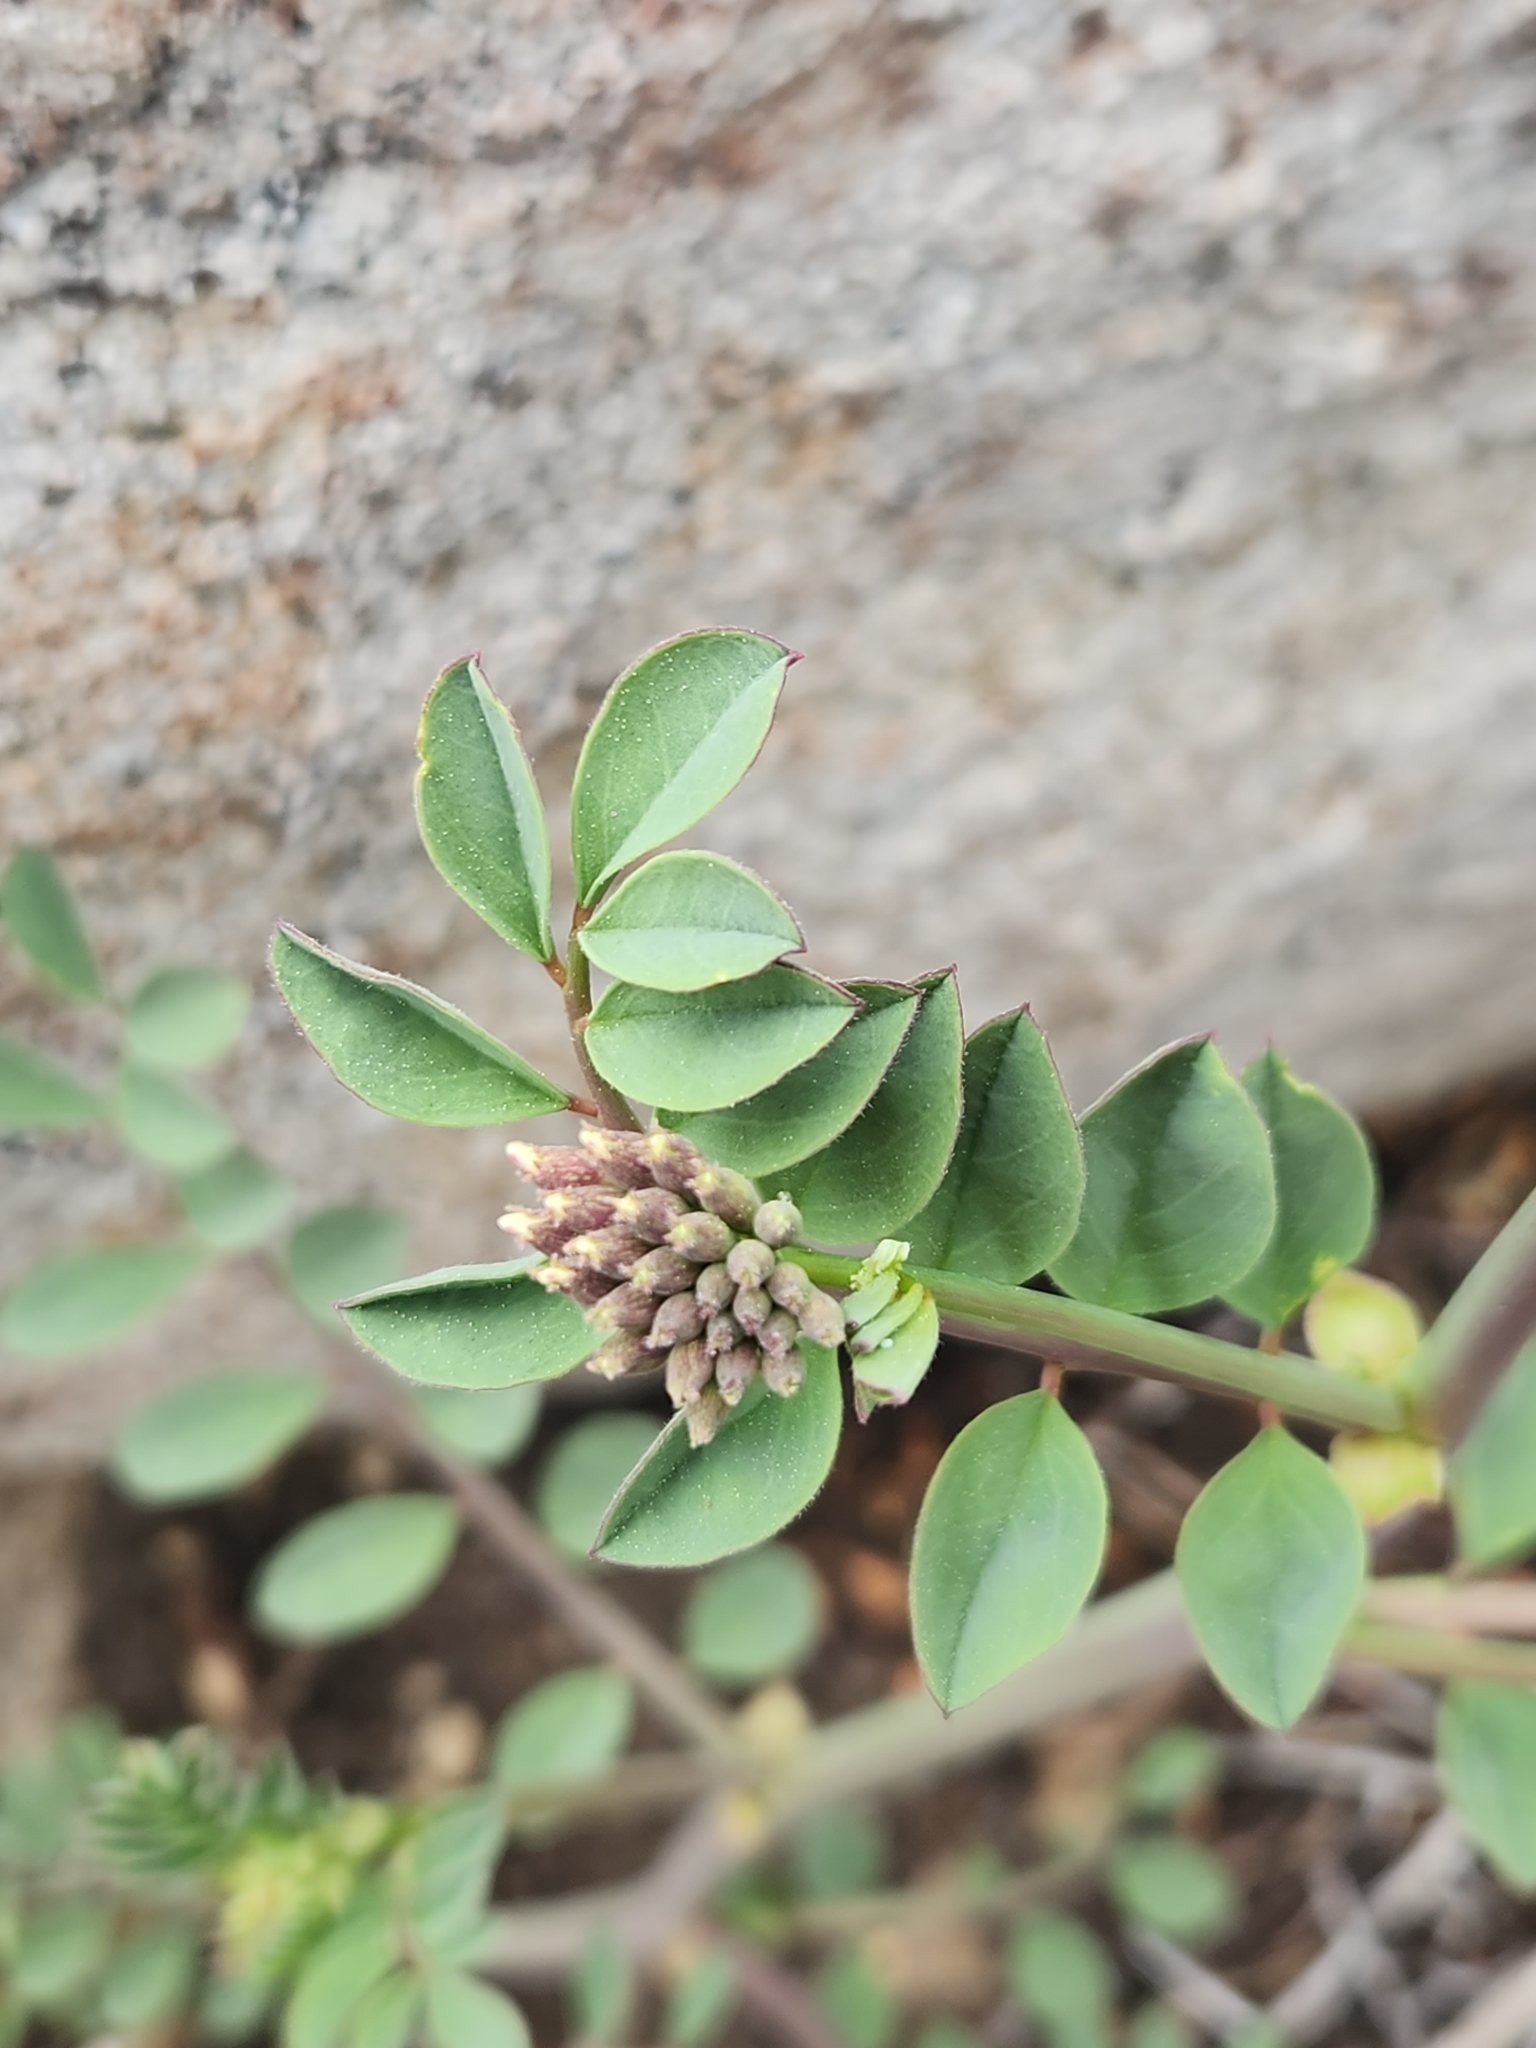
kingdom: Plantae
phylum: Tracheophyta
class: Magnoliopsida
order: Fabales
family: Fabaceae
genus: Hosackia
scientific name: Hosackia crassifolia
